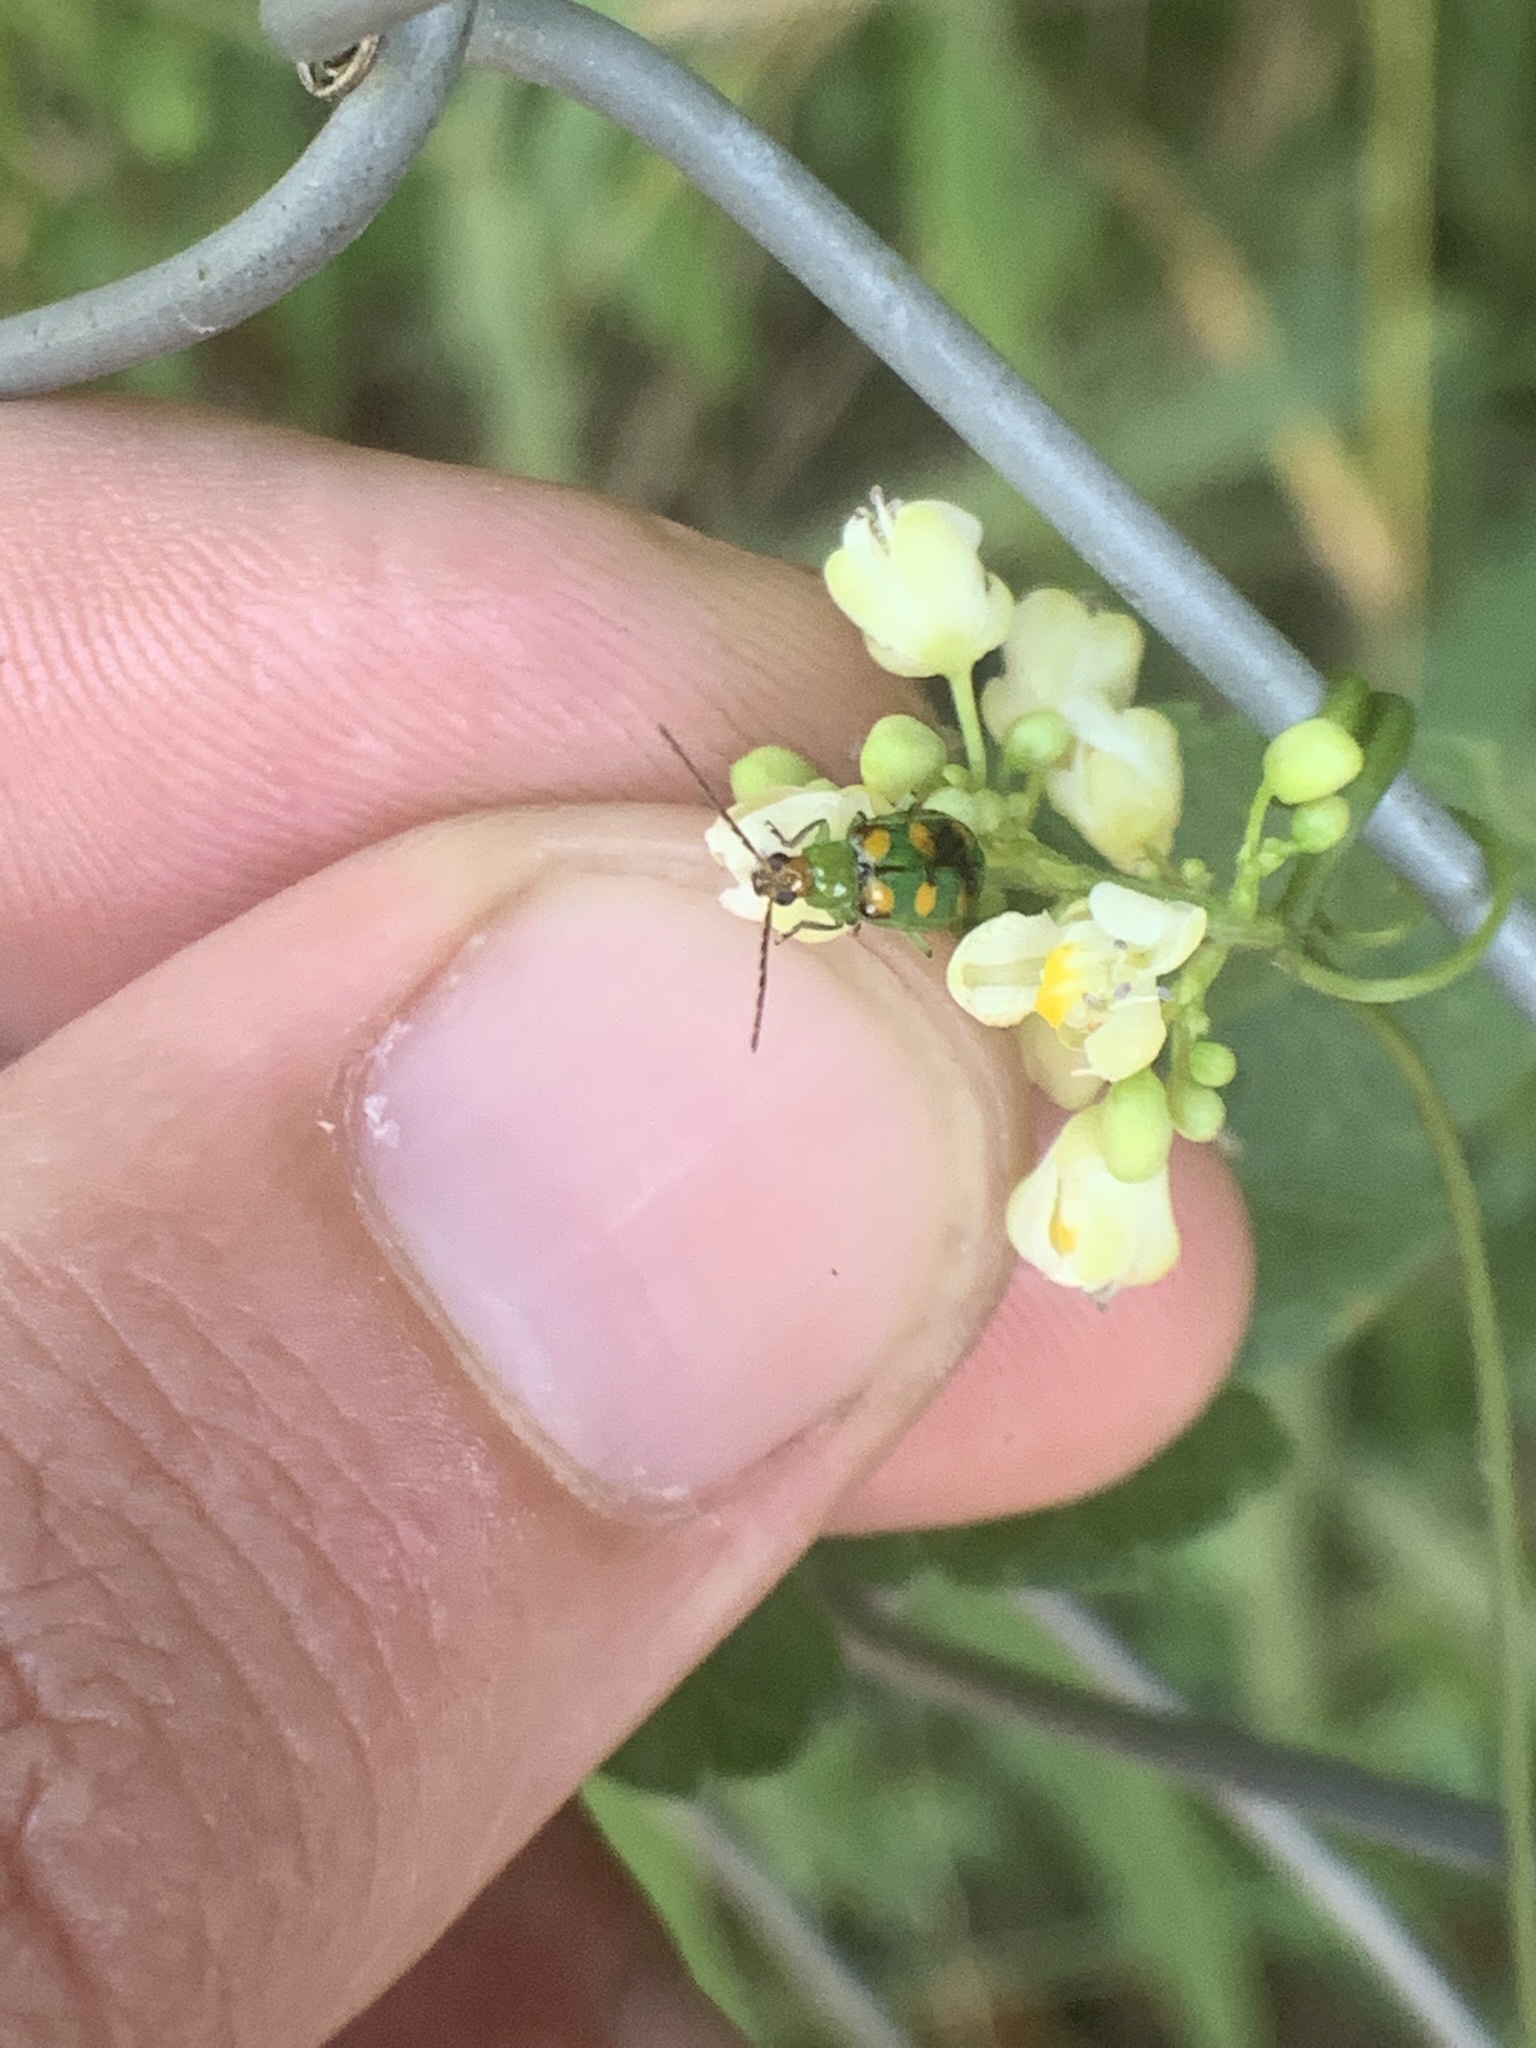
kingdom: Animalia
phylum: Arthropoda
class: Insecta
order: Coleoptera
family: Chrysomelidae
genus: Diabrotica
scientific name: Diabrotica speciosa
